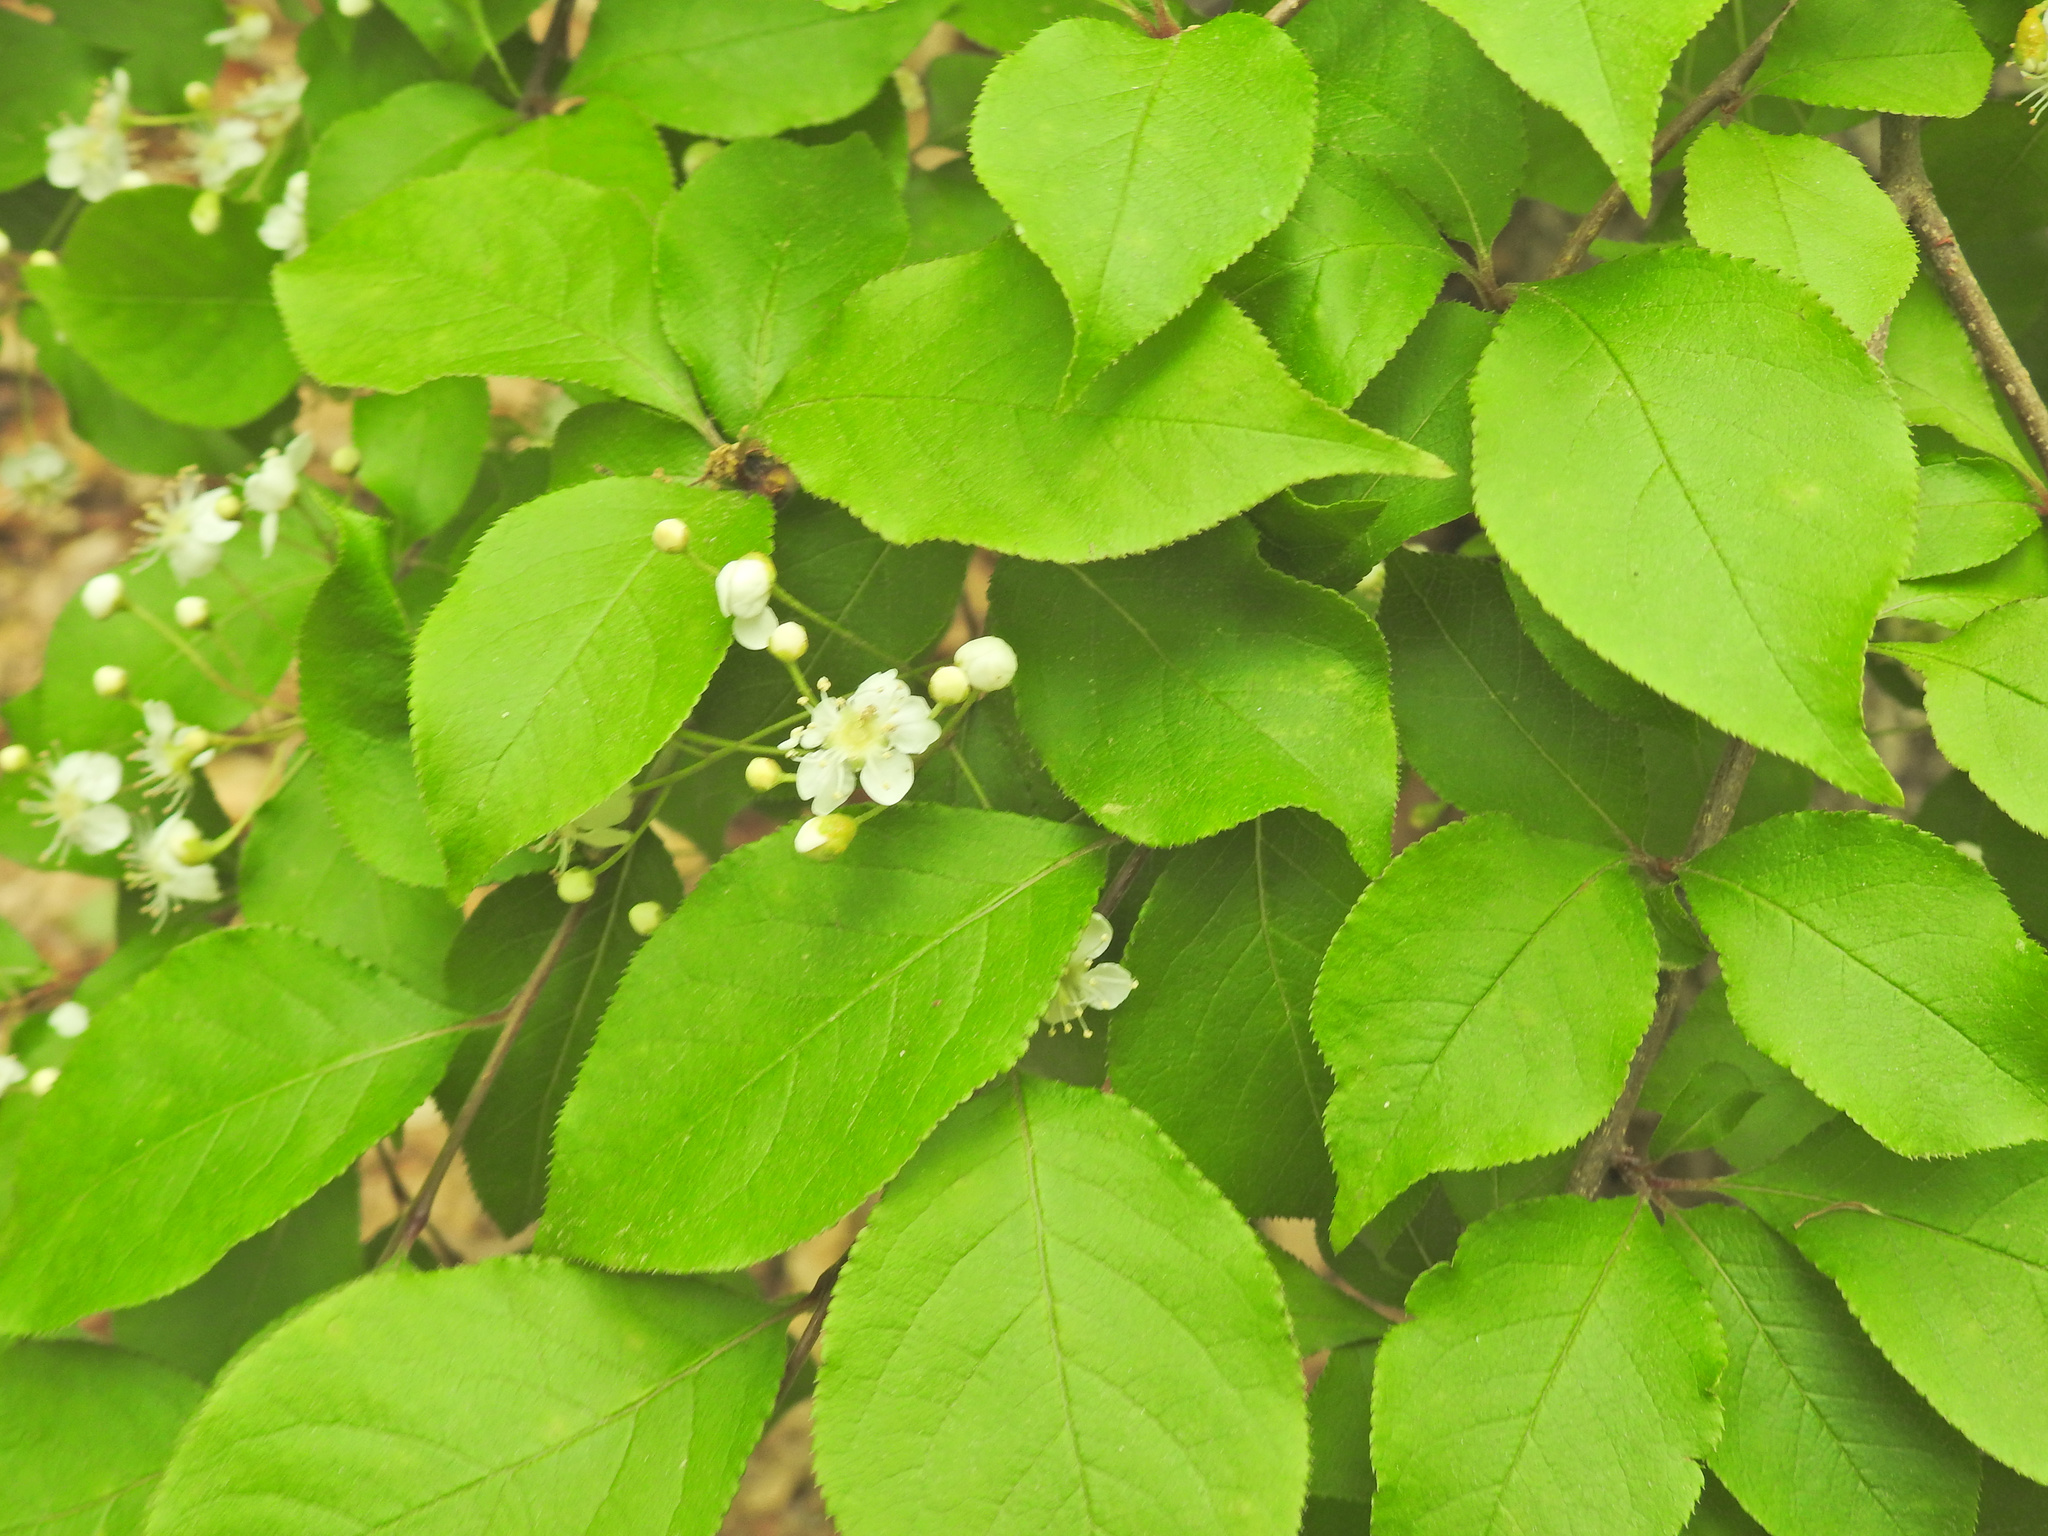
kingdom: Plantae
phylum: Tracheophyta
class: Magnoliopsida
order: Rosales
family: Rosaceae
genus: Pourthiaea
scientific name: Pourthiaea villosa
